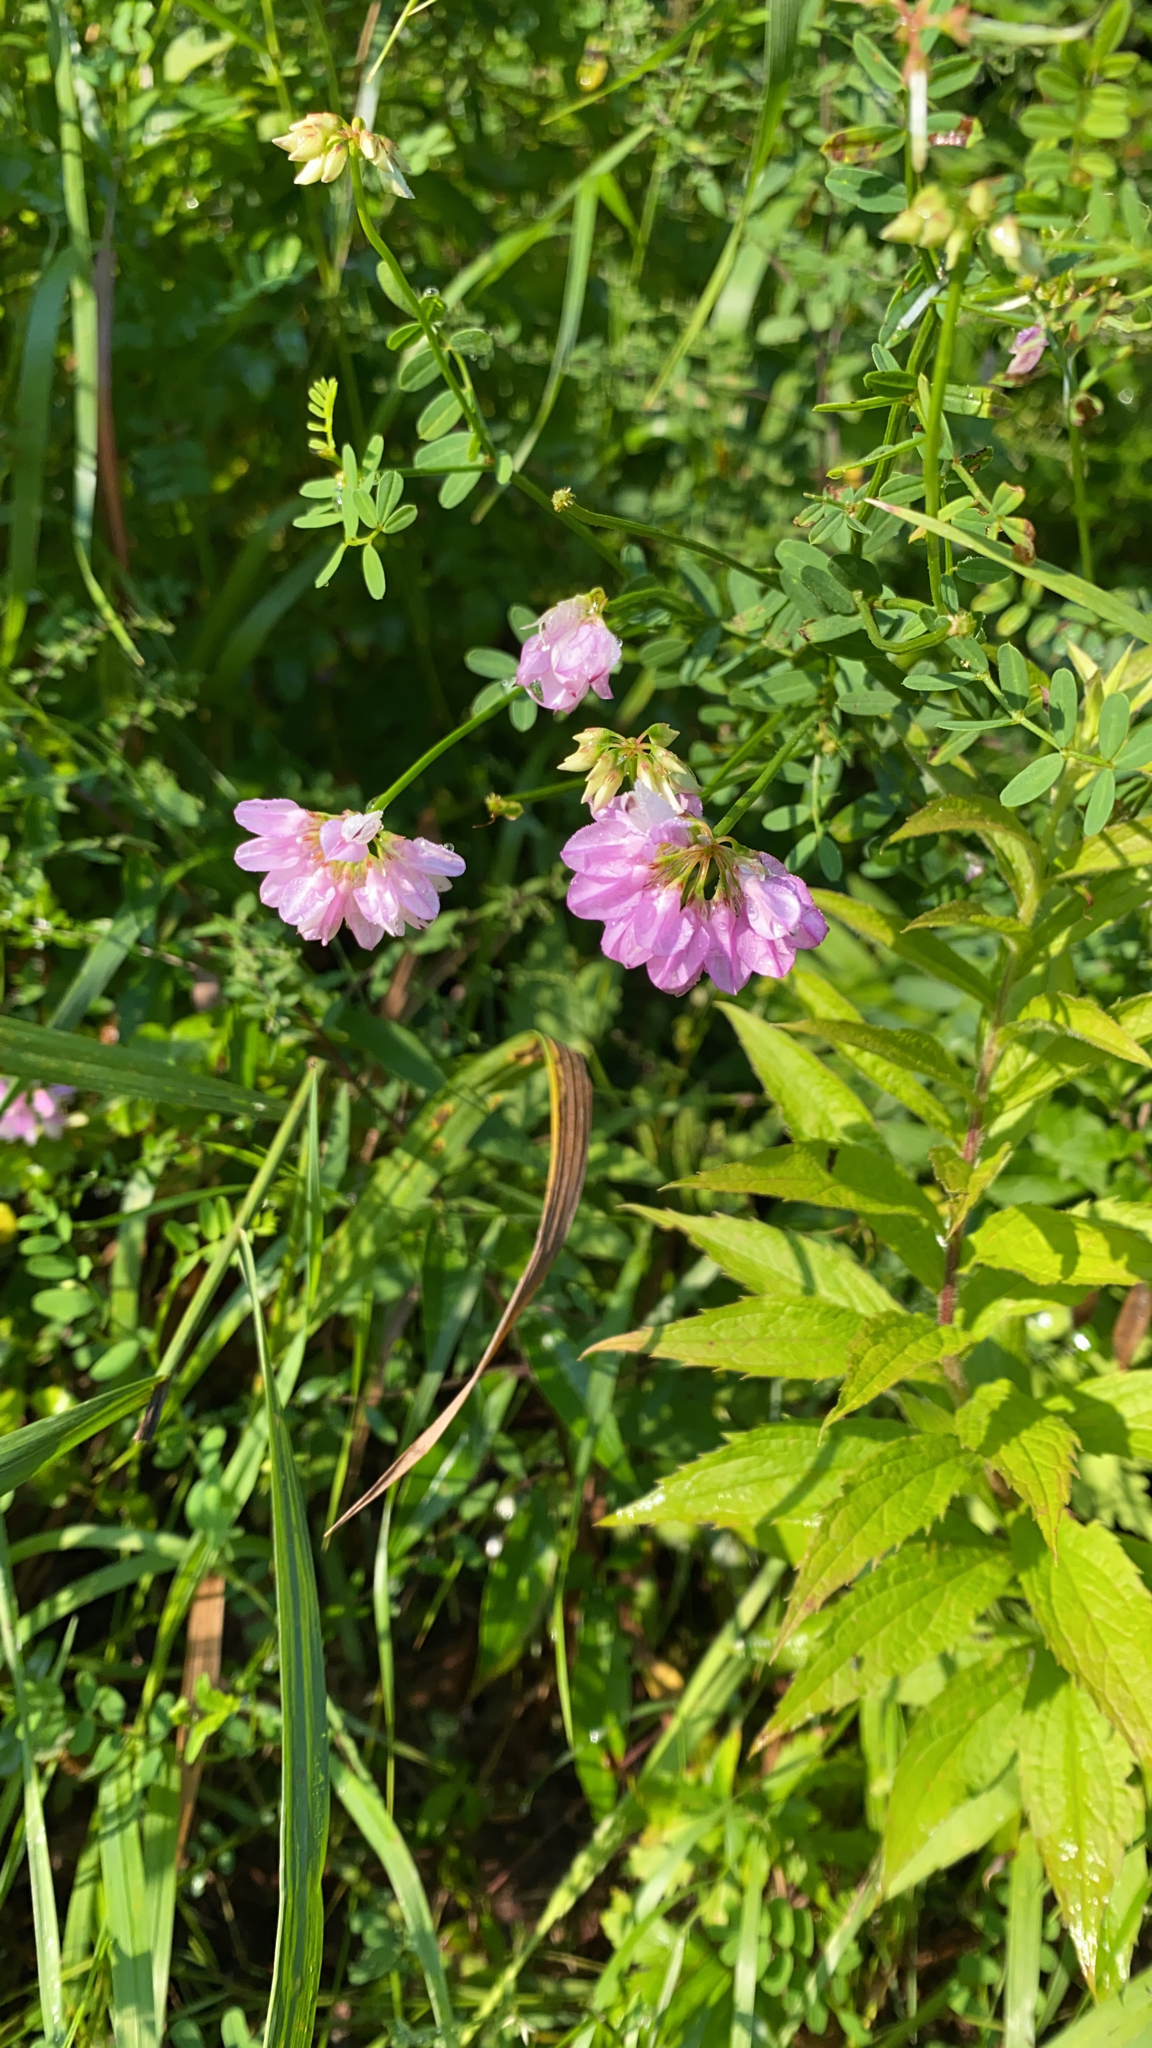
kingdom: Plantae
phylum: Tracheophyta
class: Magnoliopsida
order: Fabales
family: Fabaceae
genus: Coronilla
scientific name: Coronilla varia
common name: Crownvetch
